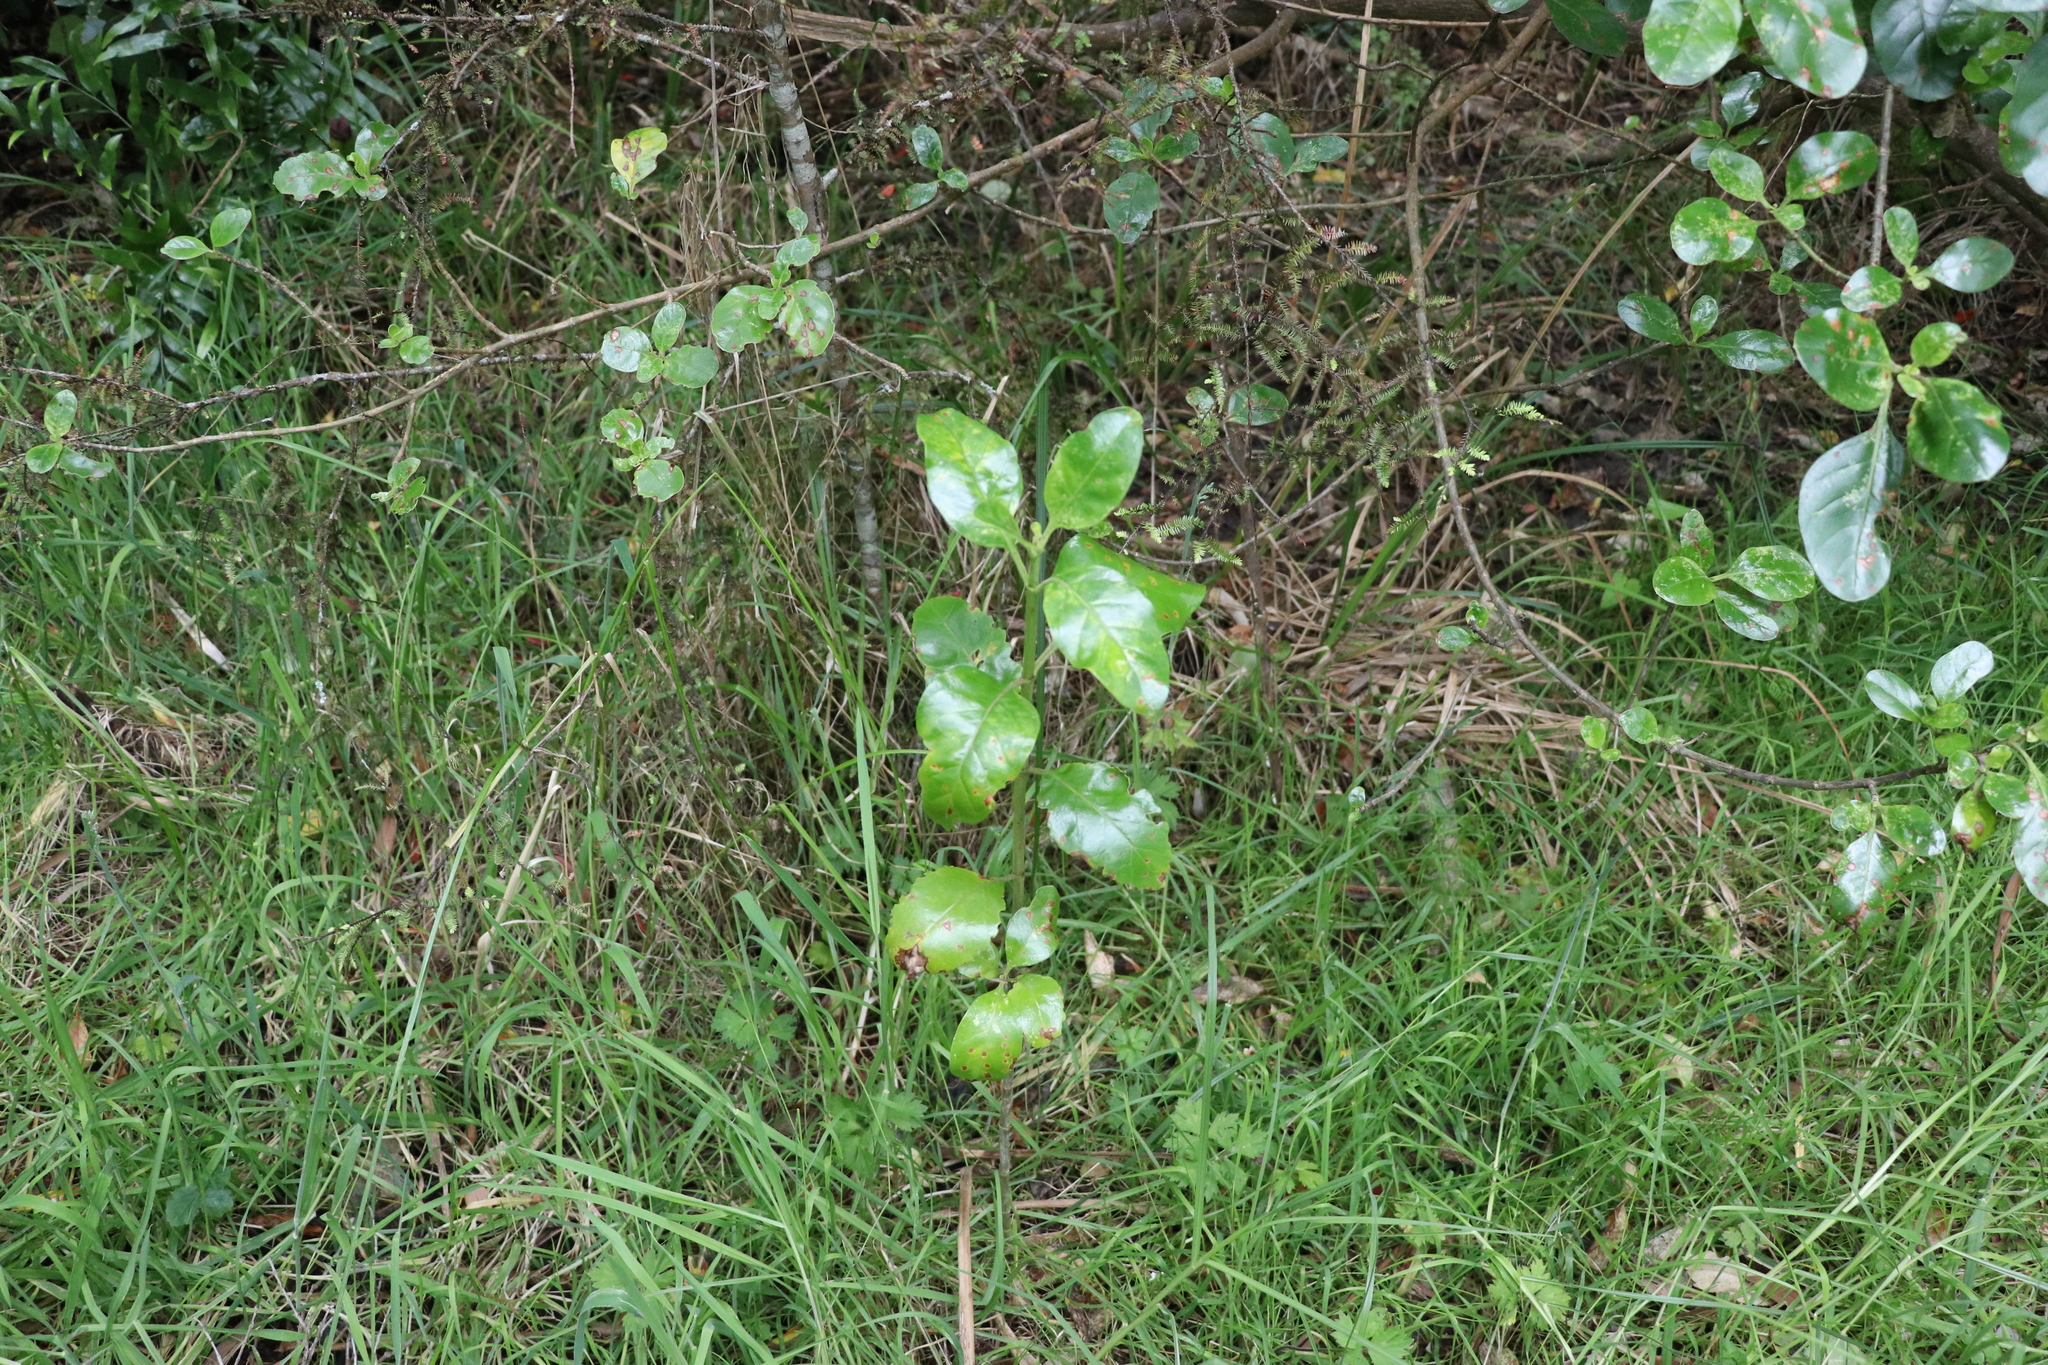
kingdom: Plantae
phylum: Tracheophyta
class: Magnoliopsida
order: Gentianales
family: Rubiaceae
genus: Coprosma
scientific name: Coprosma repens
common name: Tree bedstraw
